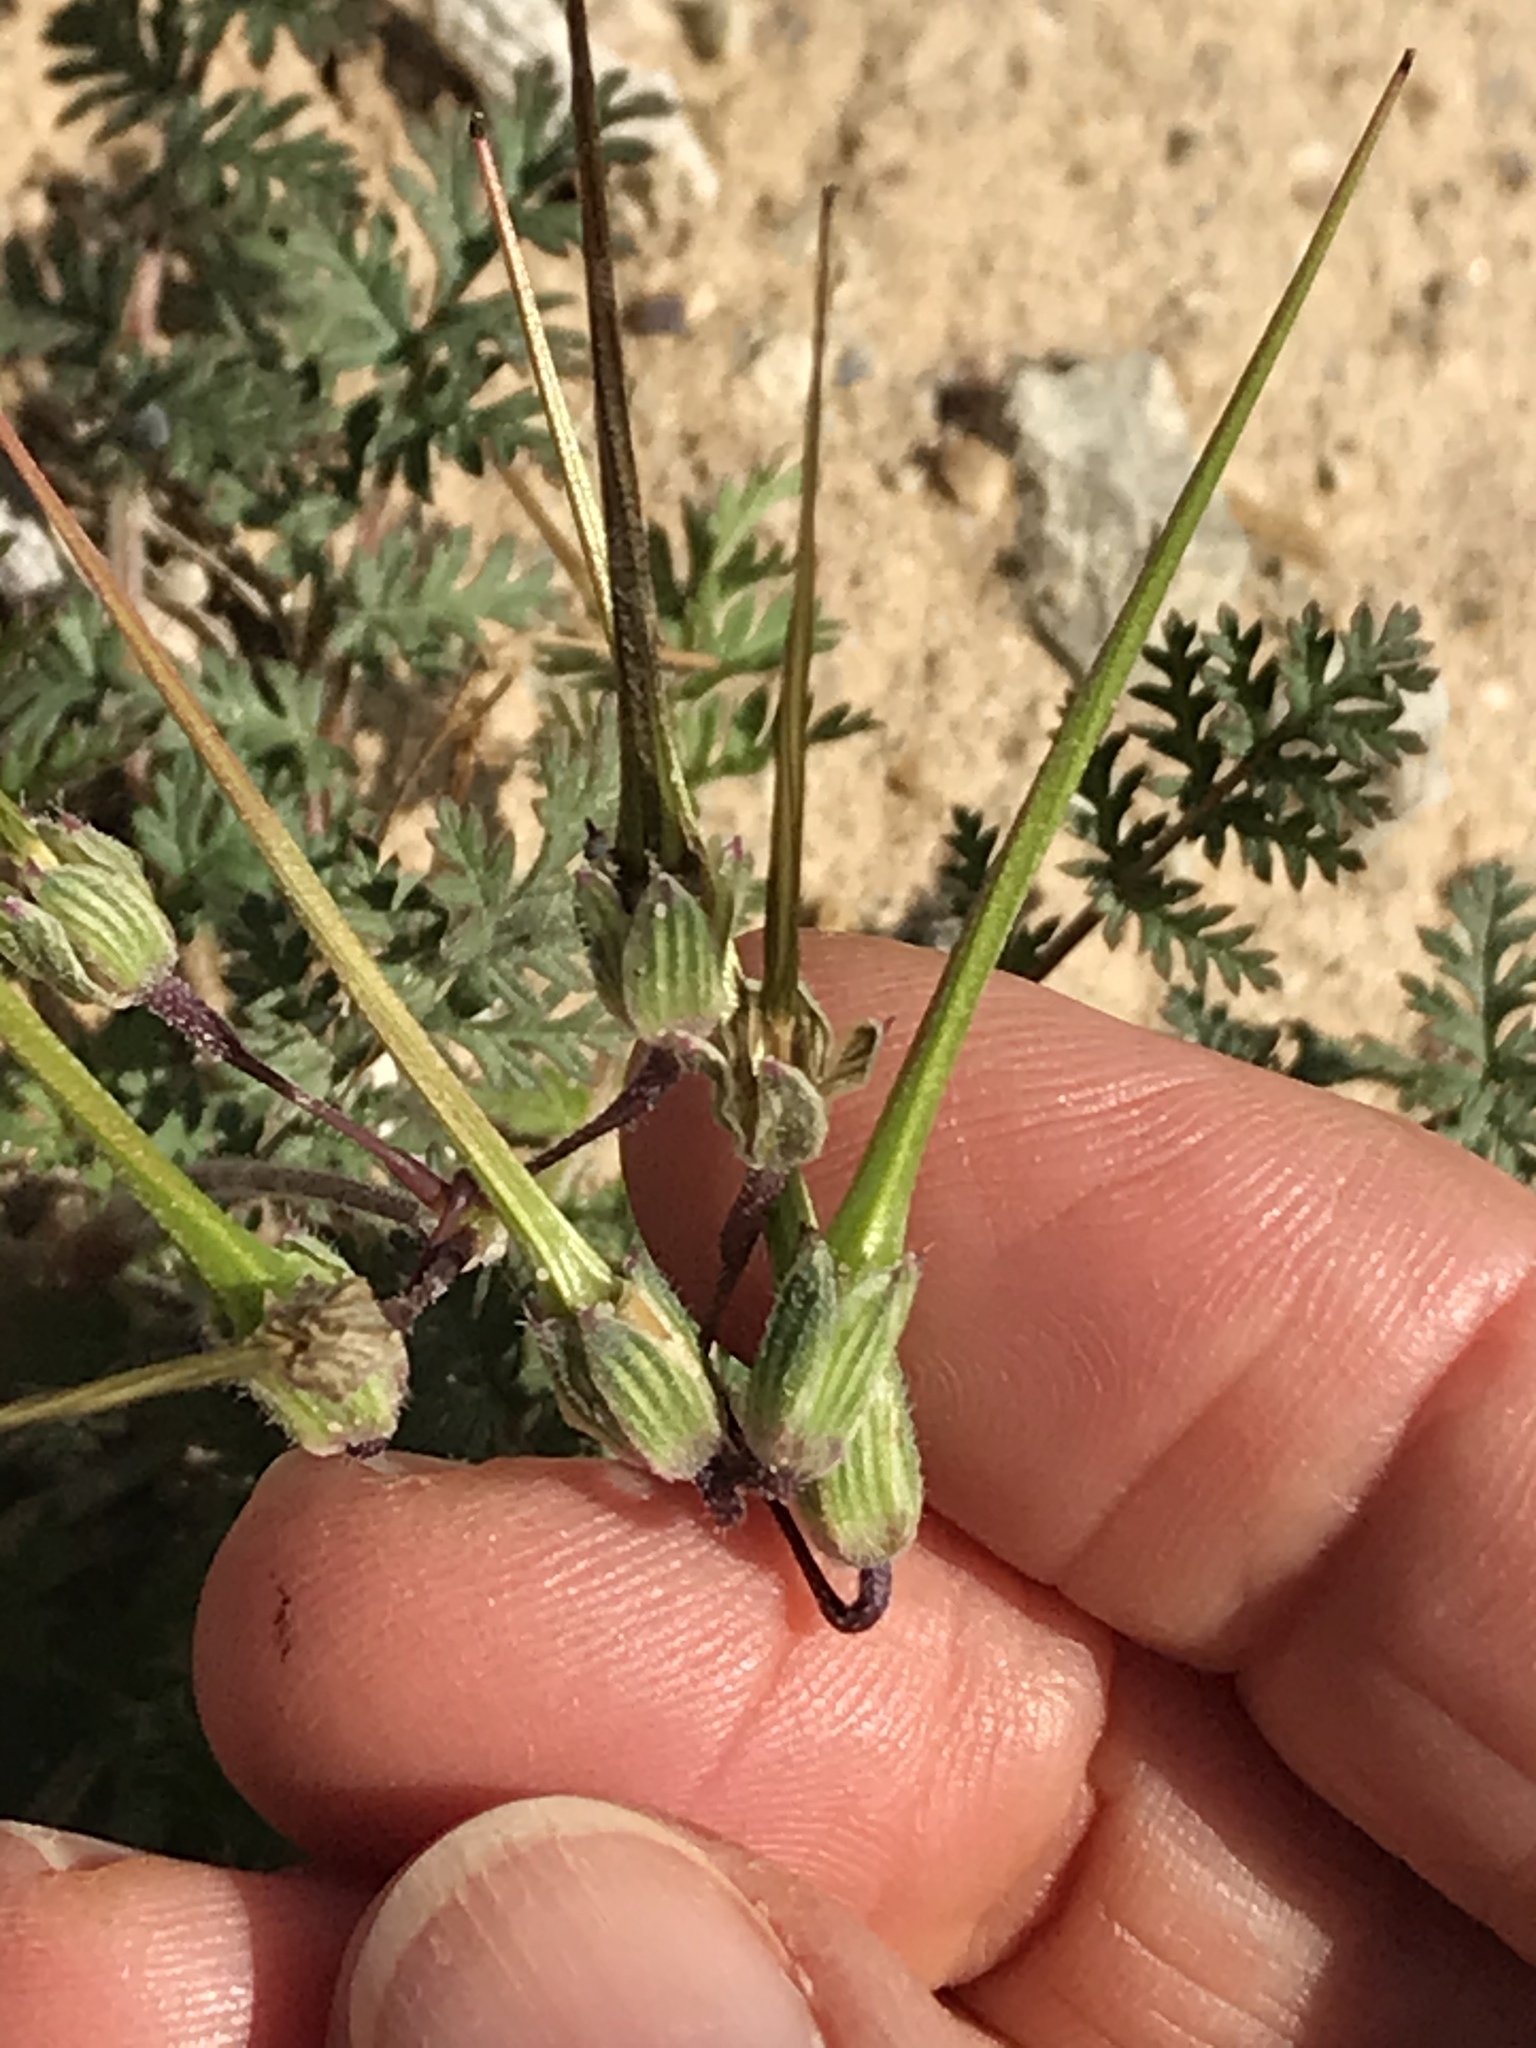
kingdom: Plantae
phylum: Tracheophyta
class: Magnoliopsida
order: Geraniales
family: Geraniaceae
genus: Erodium
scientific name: Erodium cicutarium
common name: Common stork's-bill
